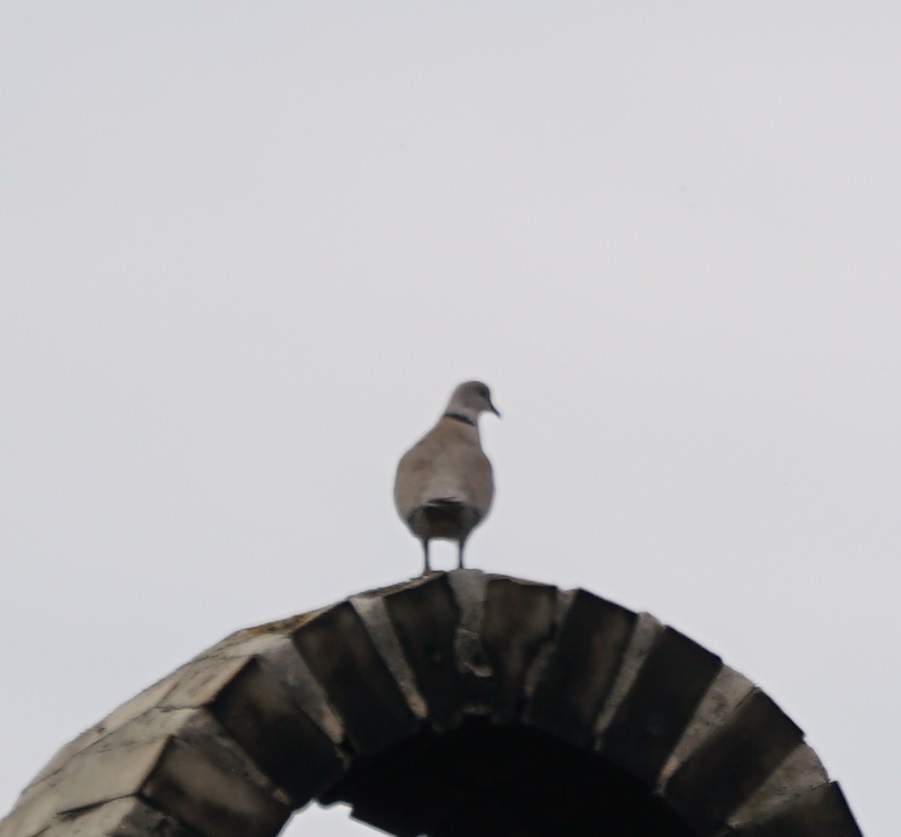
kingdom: Animalia
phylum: Chordata
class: Aves
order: Columbiformes
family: Columbidae
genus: Streptopelia
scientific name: Streptopelia decaocto
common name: Eurasian collared dove
